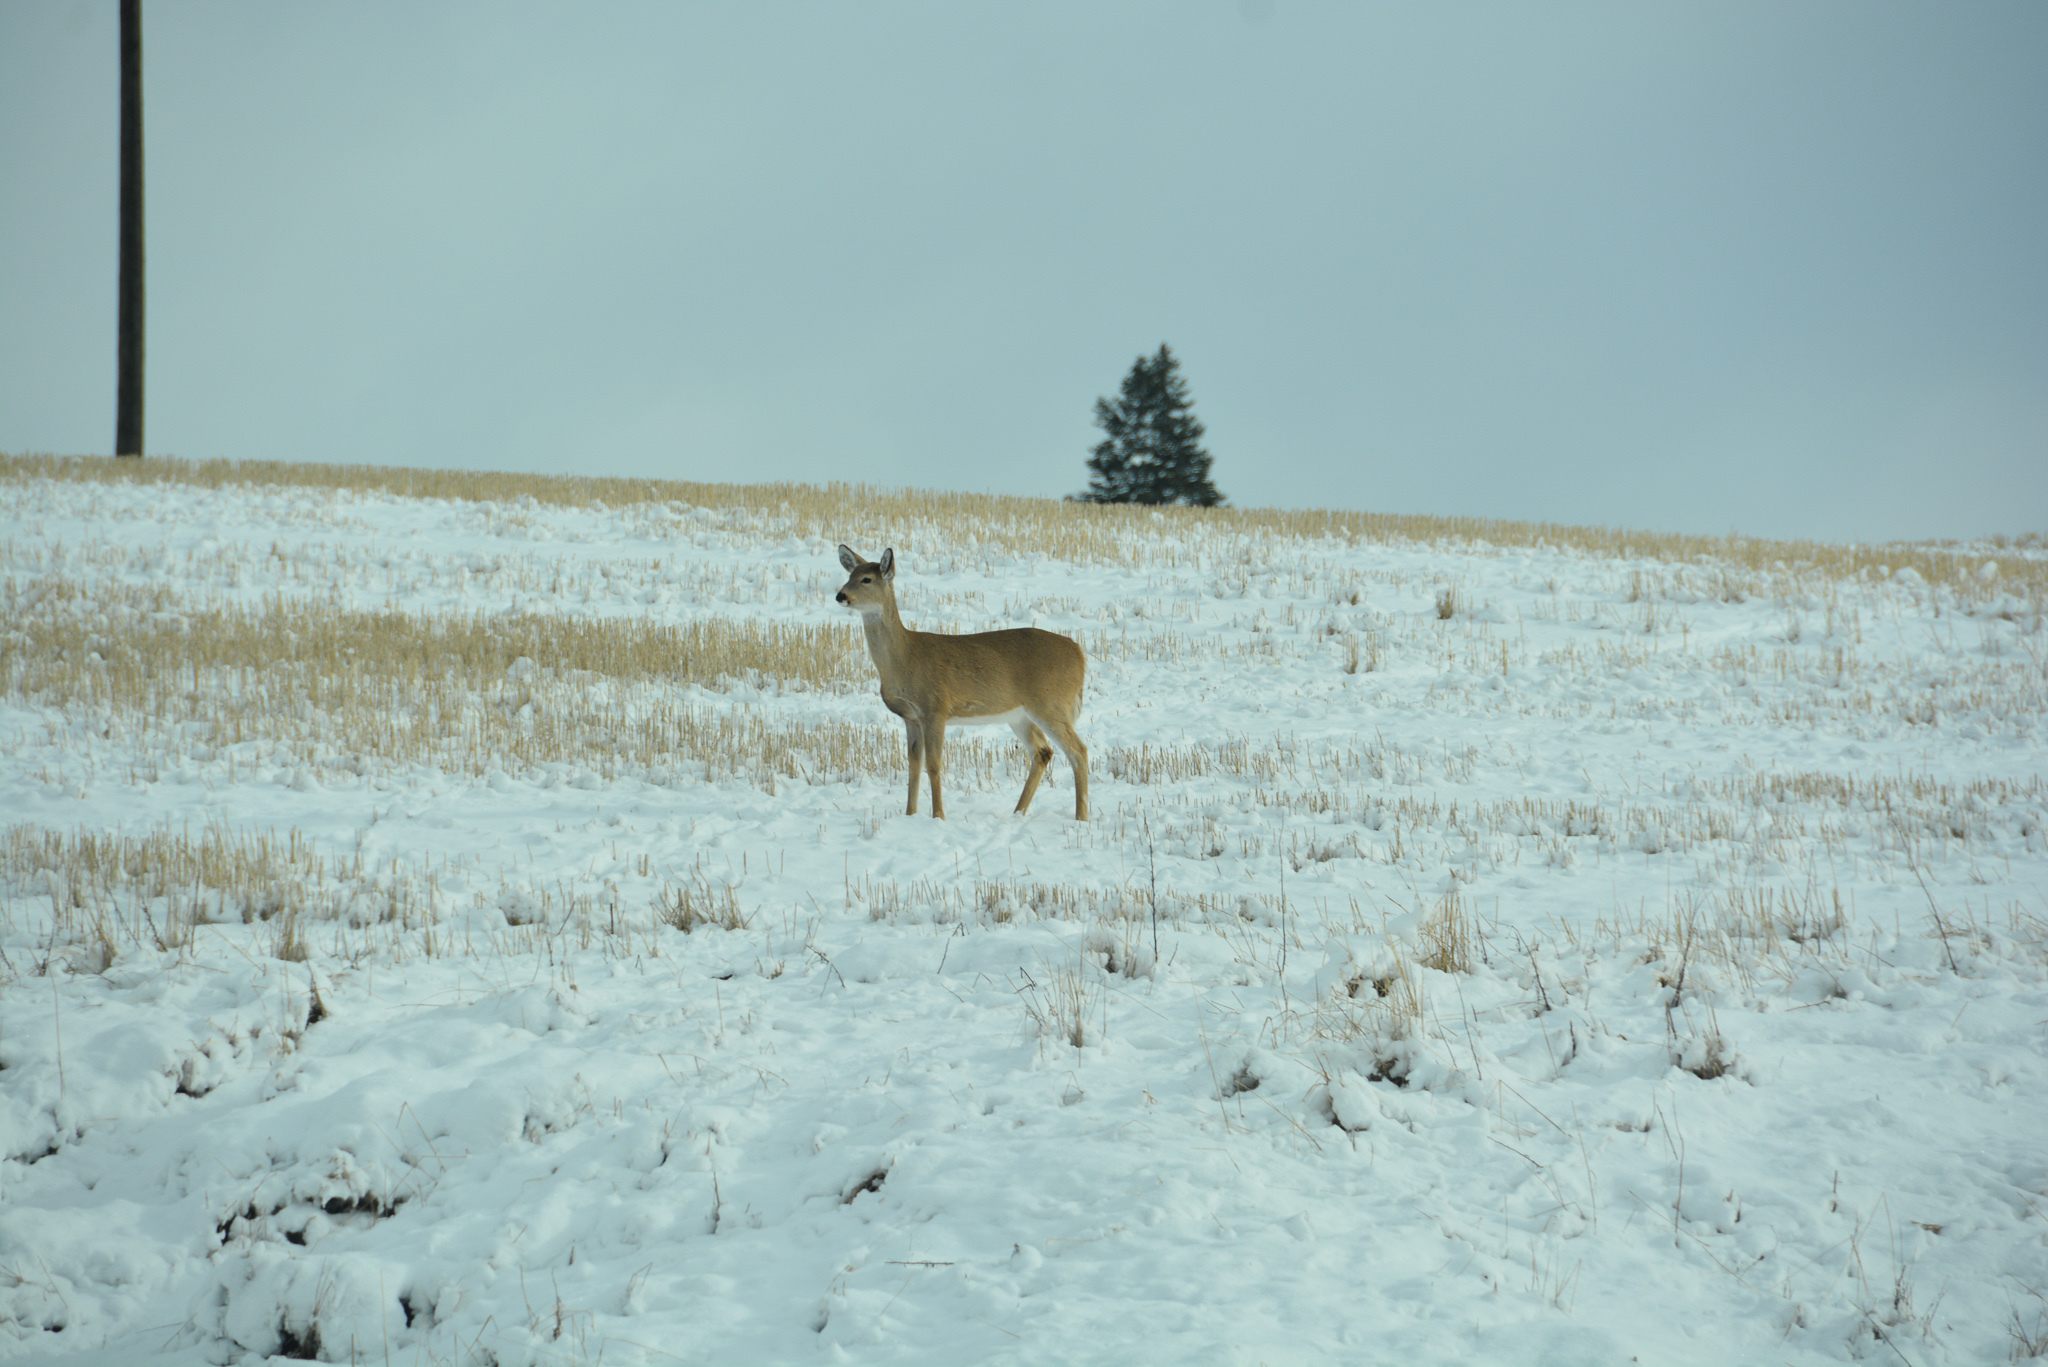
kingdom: Animalia
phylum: Chordata
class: Mammalia
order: Artiodactyla
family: Cervidae
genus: Odocoileus
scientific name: Odocoileus virginianus
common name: White-tailed deer
